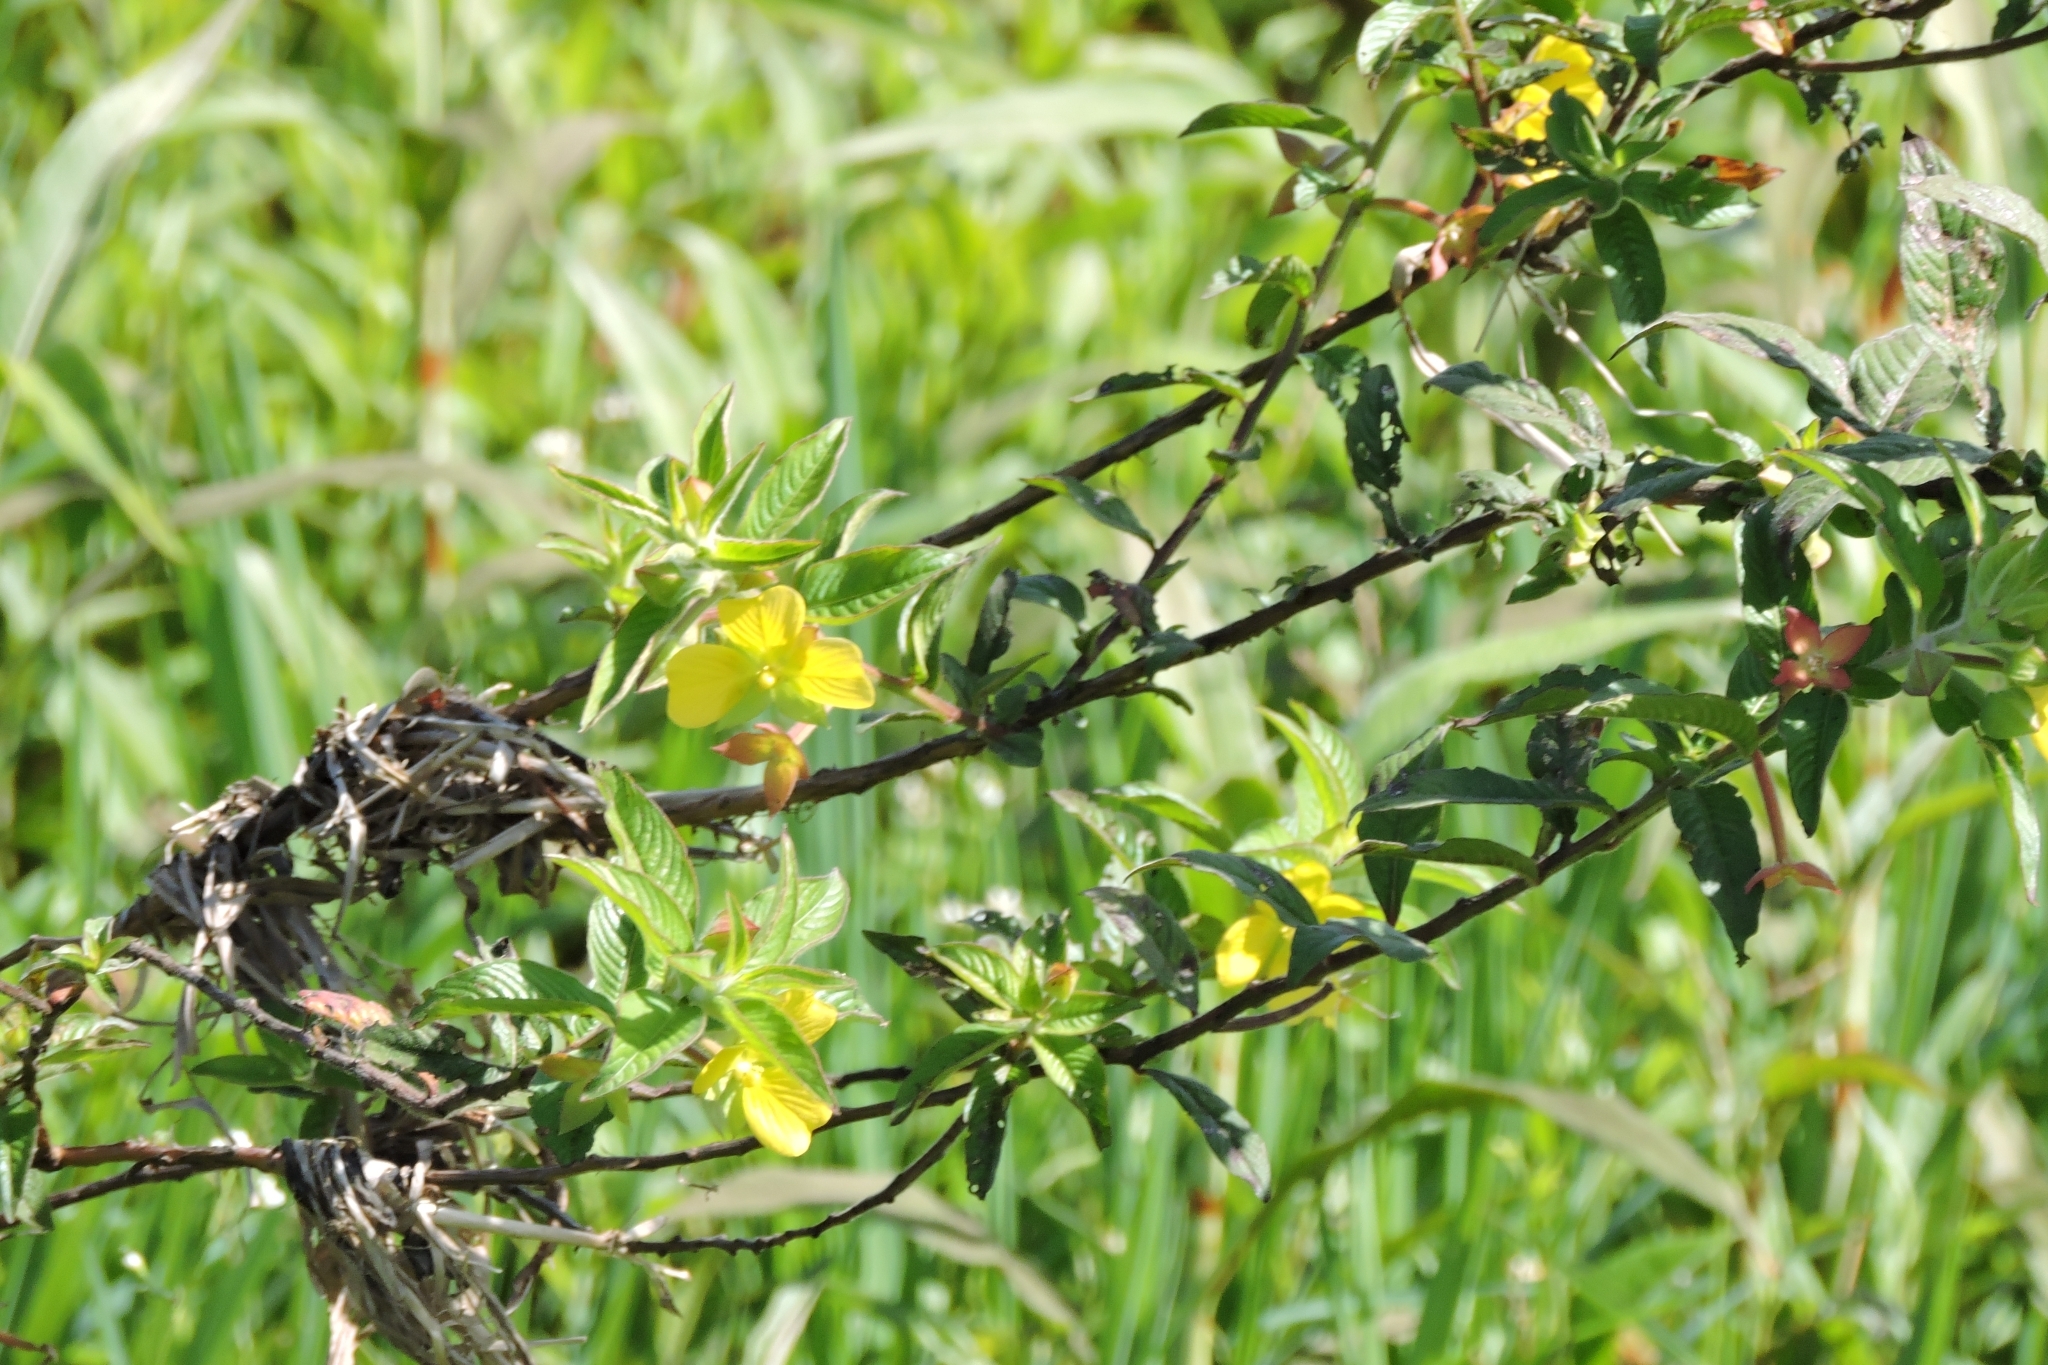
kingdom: Plantae
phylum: Tracheophyta
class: Magnoliopsida
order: Myrtales
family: Onagraceae
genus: Ludwigia
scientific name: Ludwigia octovalvis
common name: Water-primrose
